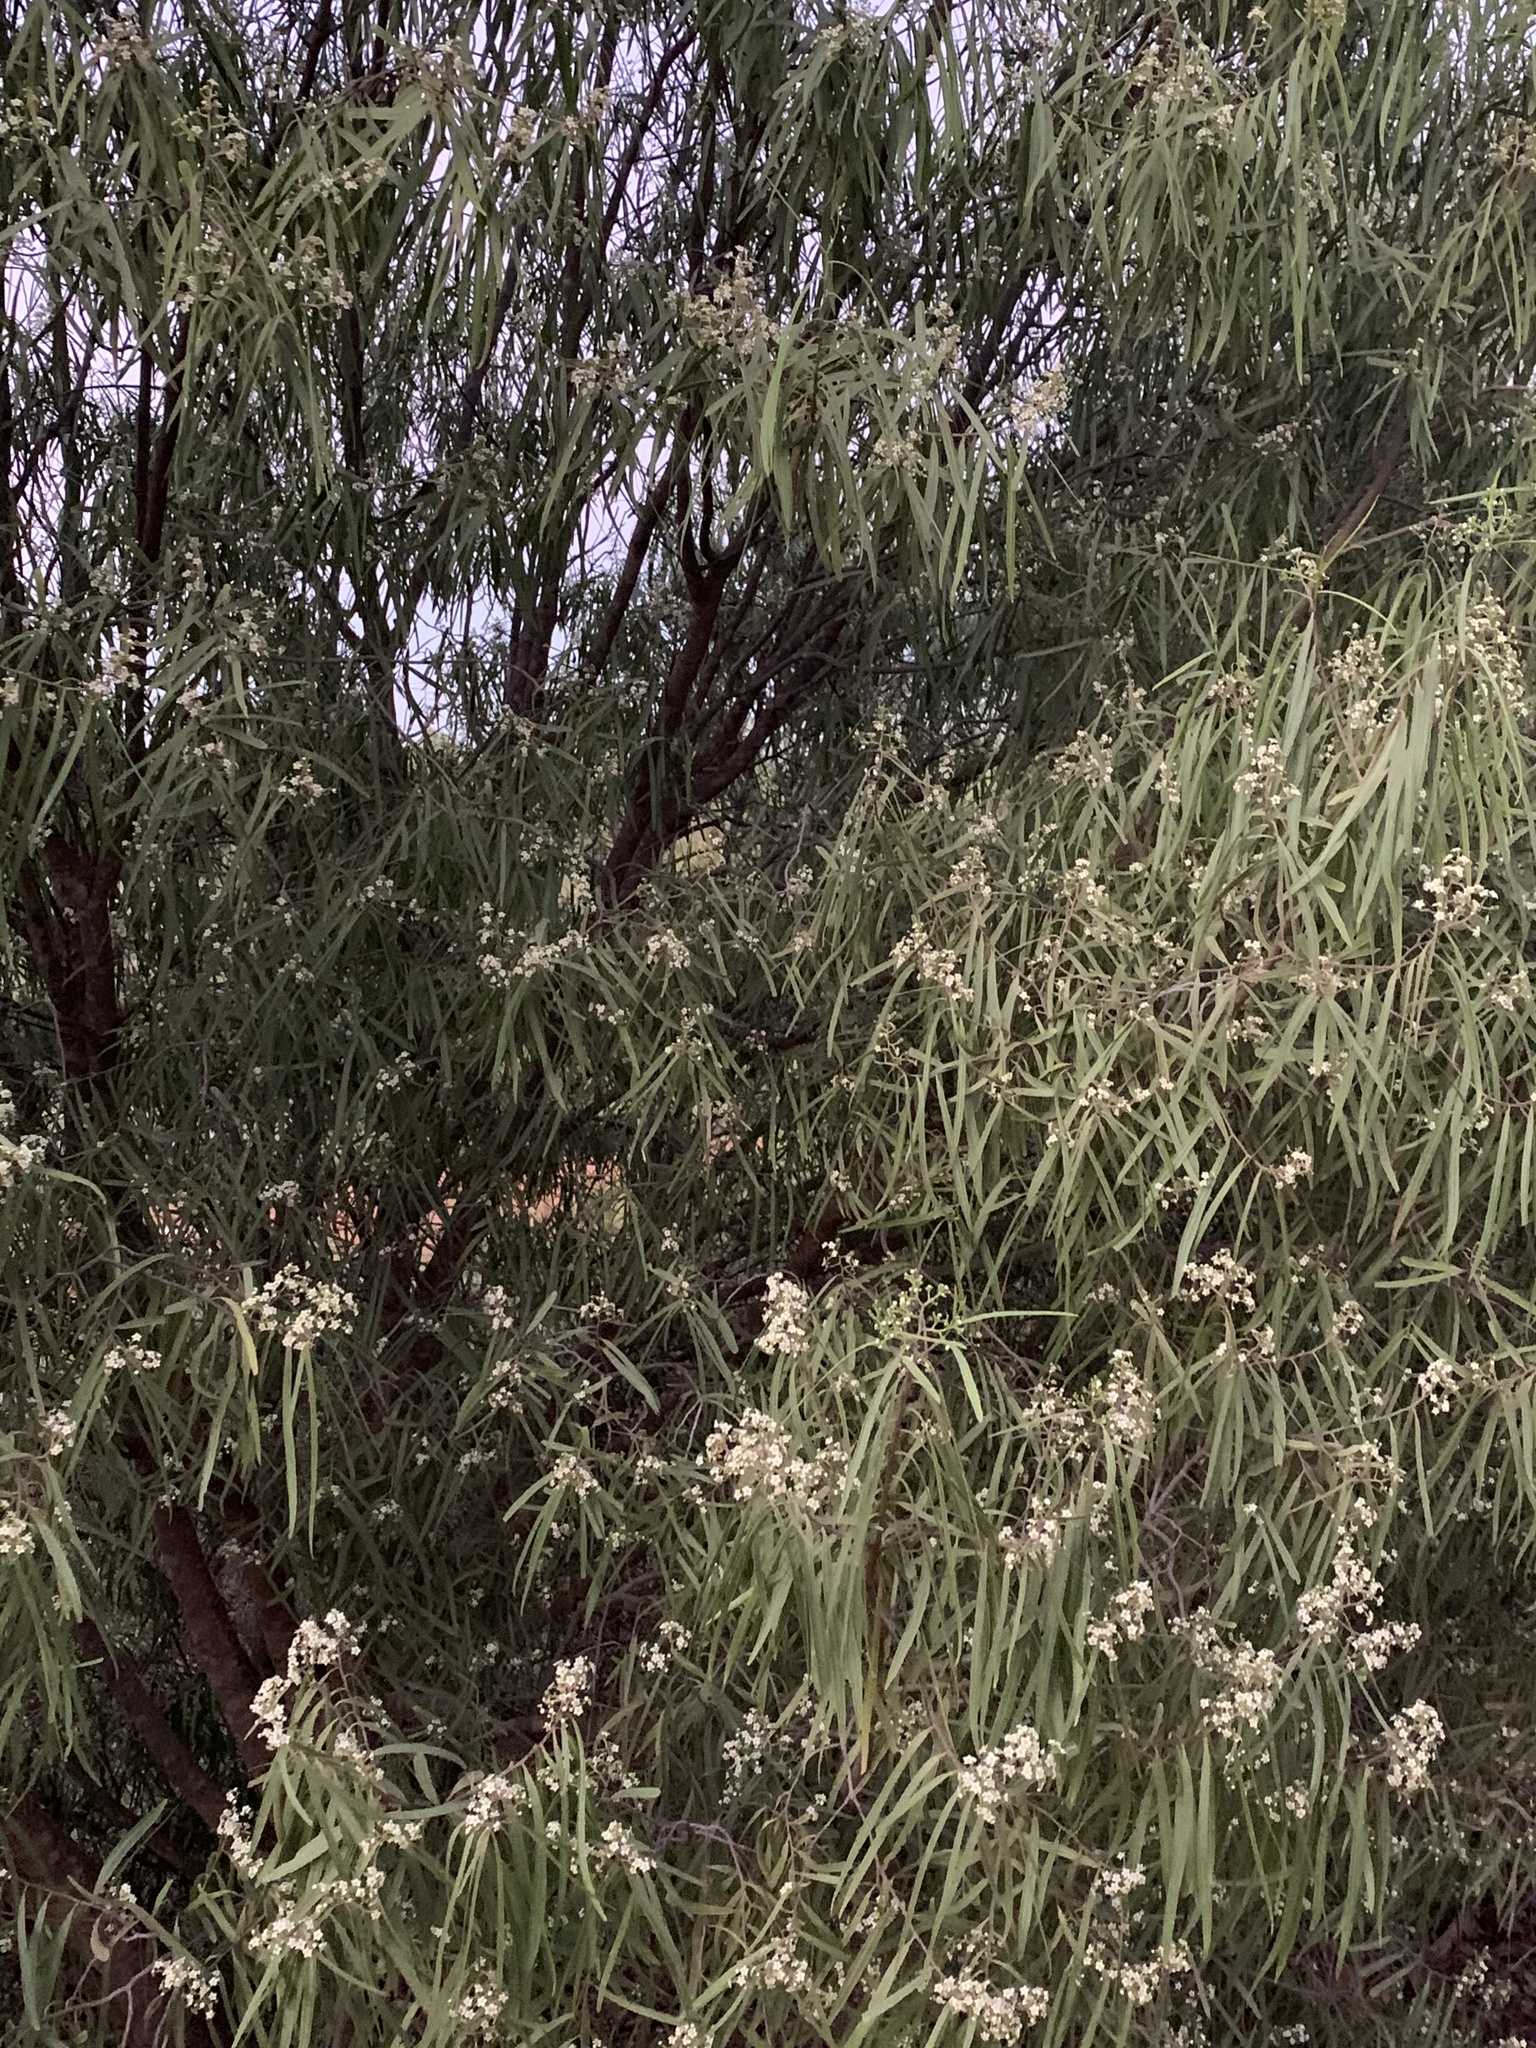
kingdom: Plantae
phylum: Tracheophyta
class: Magnoliopsida
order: Sapindales
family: Rutaceae
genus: Geijera
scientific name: Geijera parviflora
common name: Wilga
